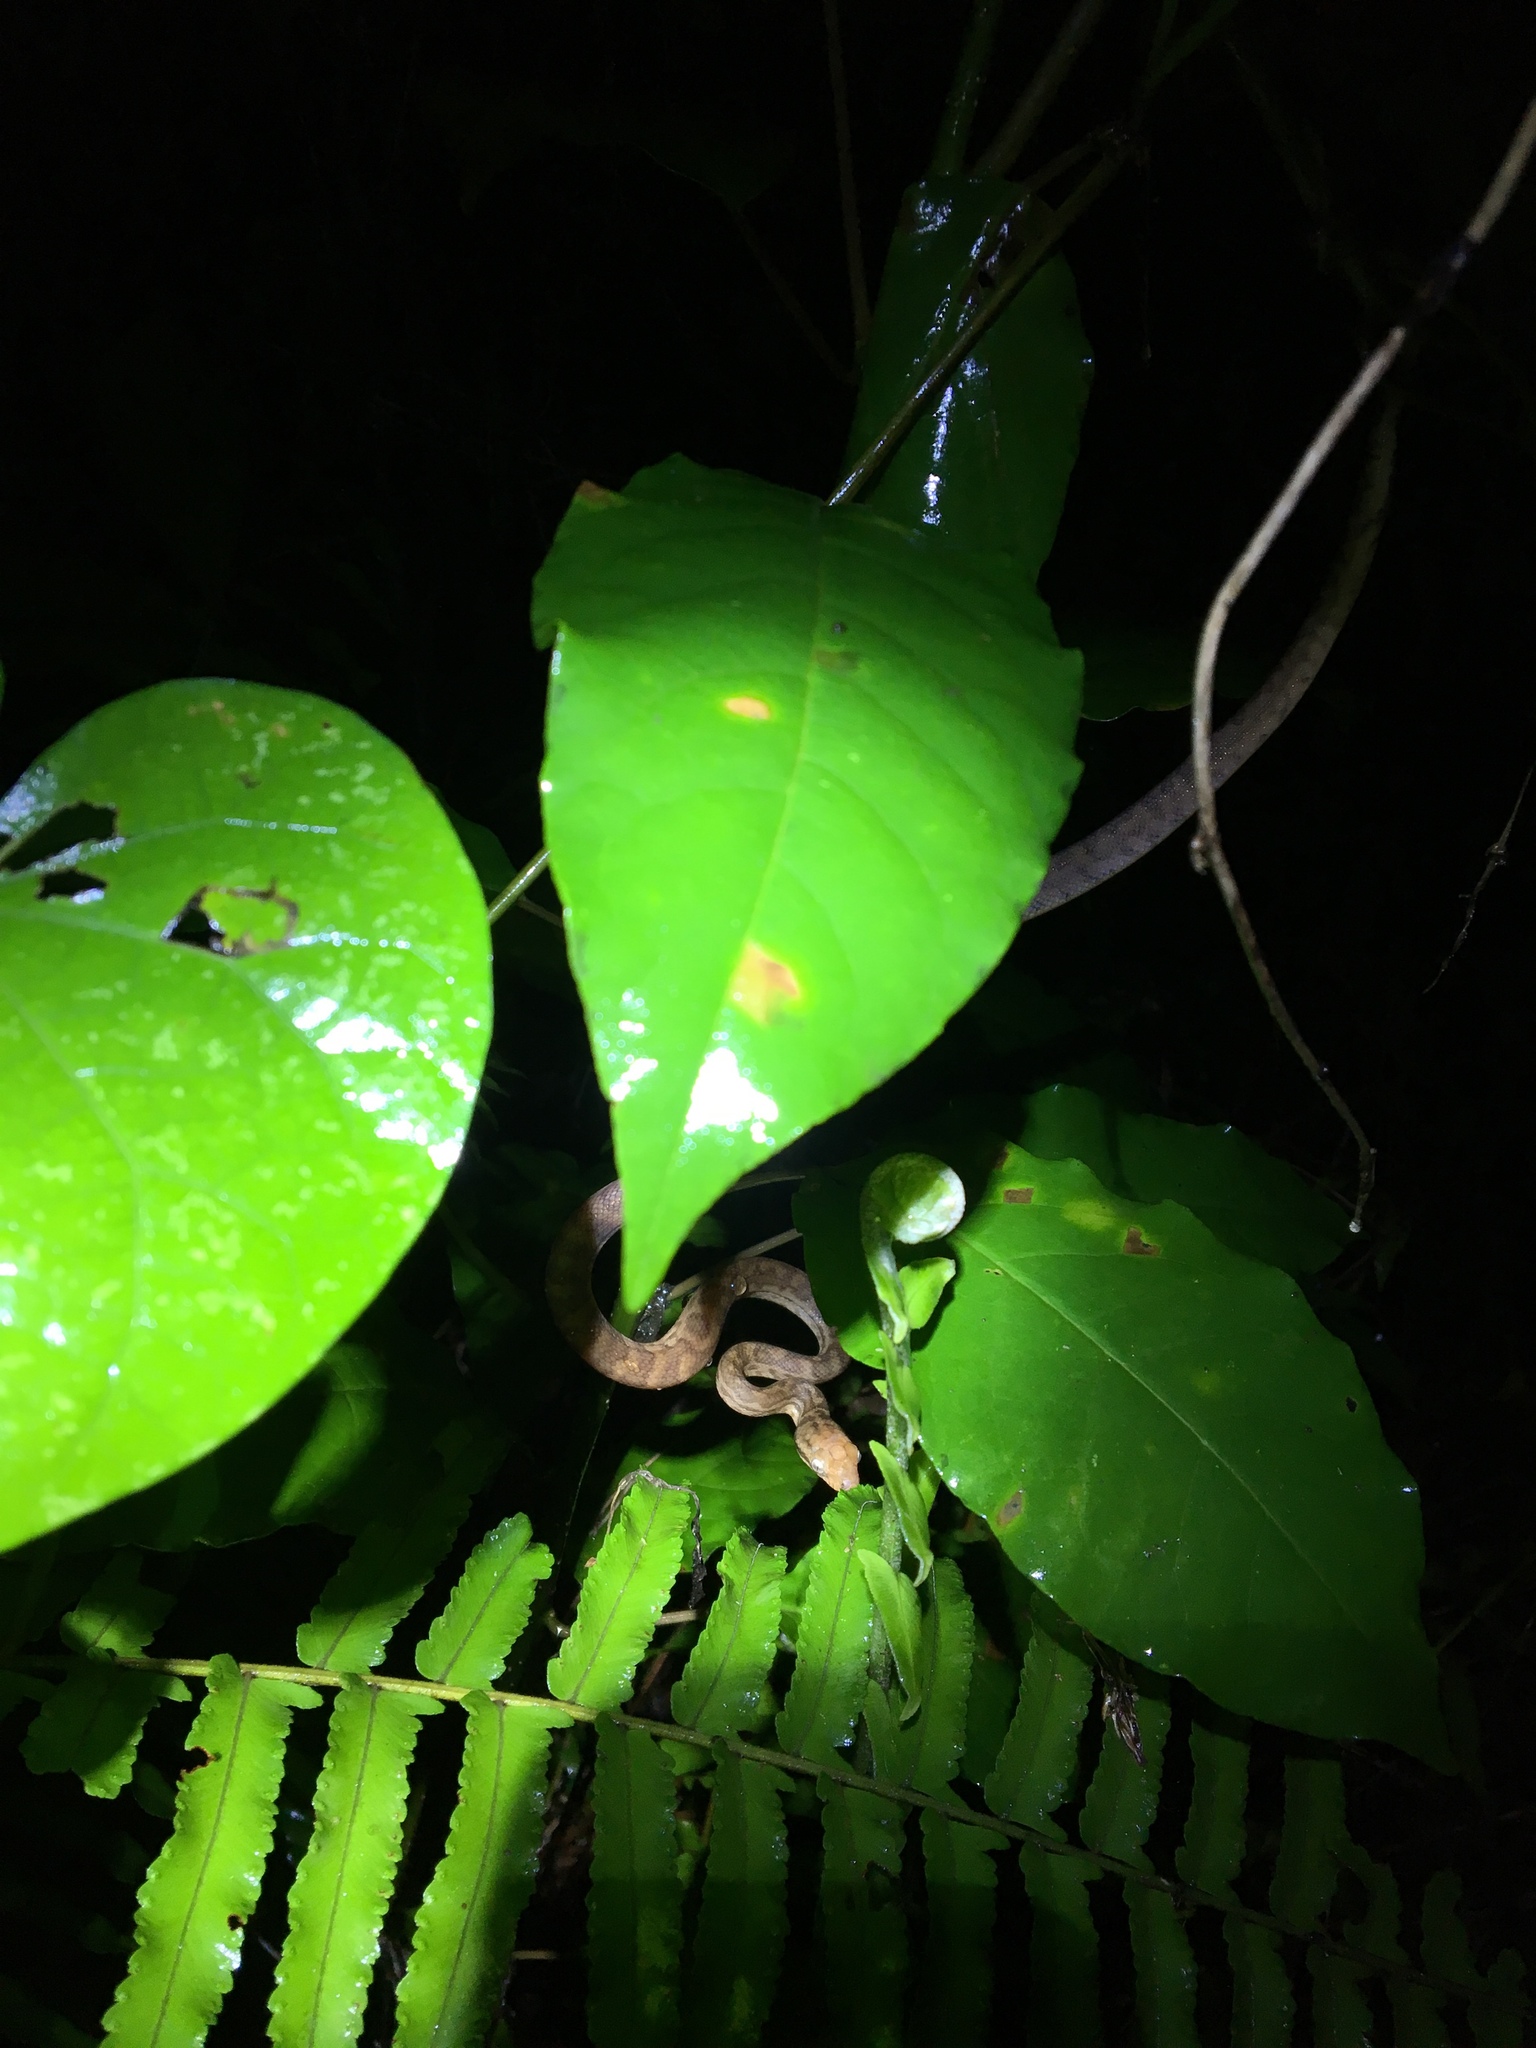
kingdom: Animalia
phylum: Chordata
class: Squamata
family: Boidae
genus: Chilabothrus
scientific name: Chilabothrus inornatus
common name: Puerto rican boa
